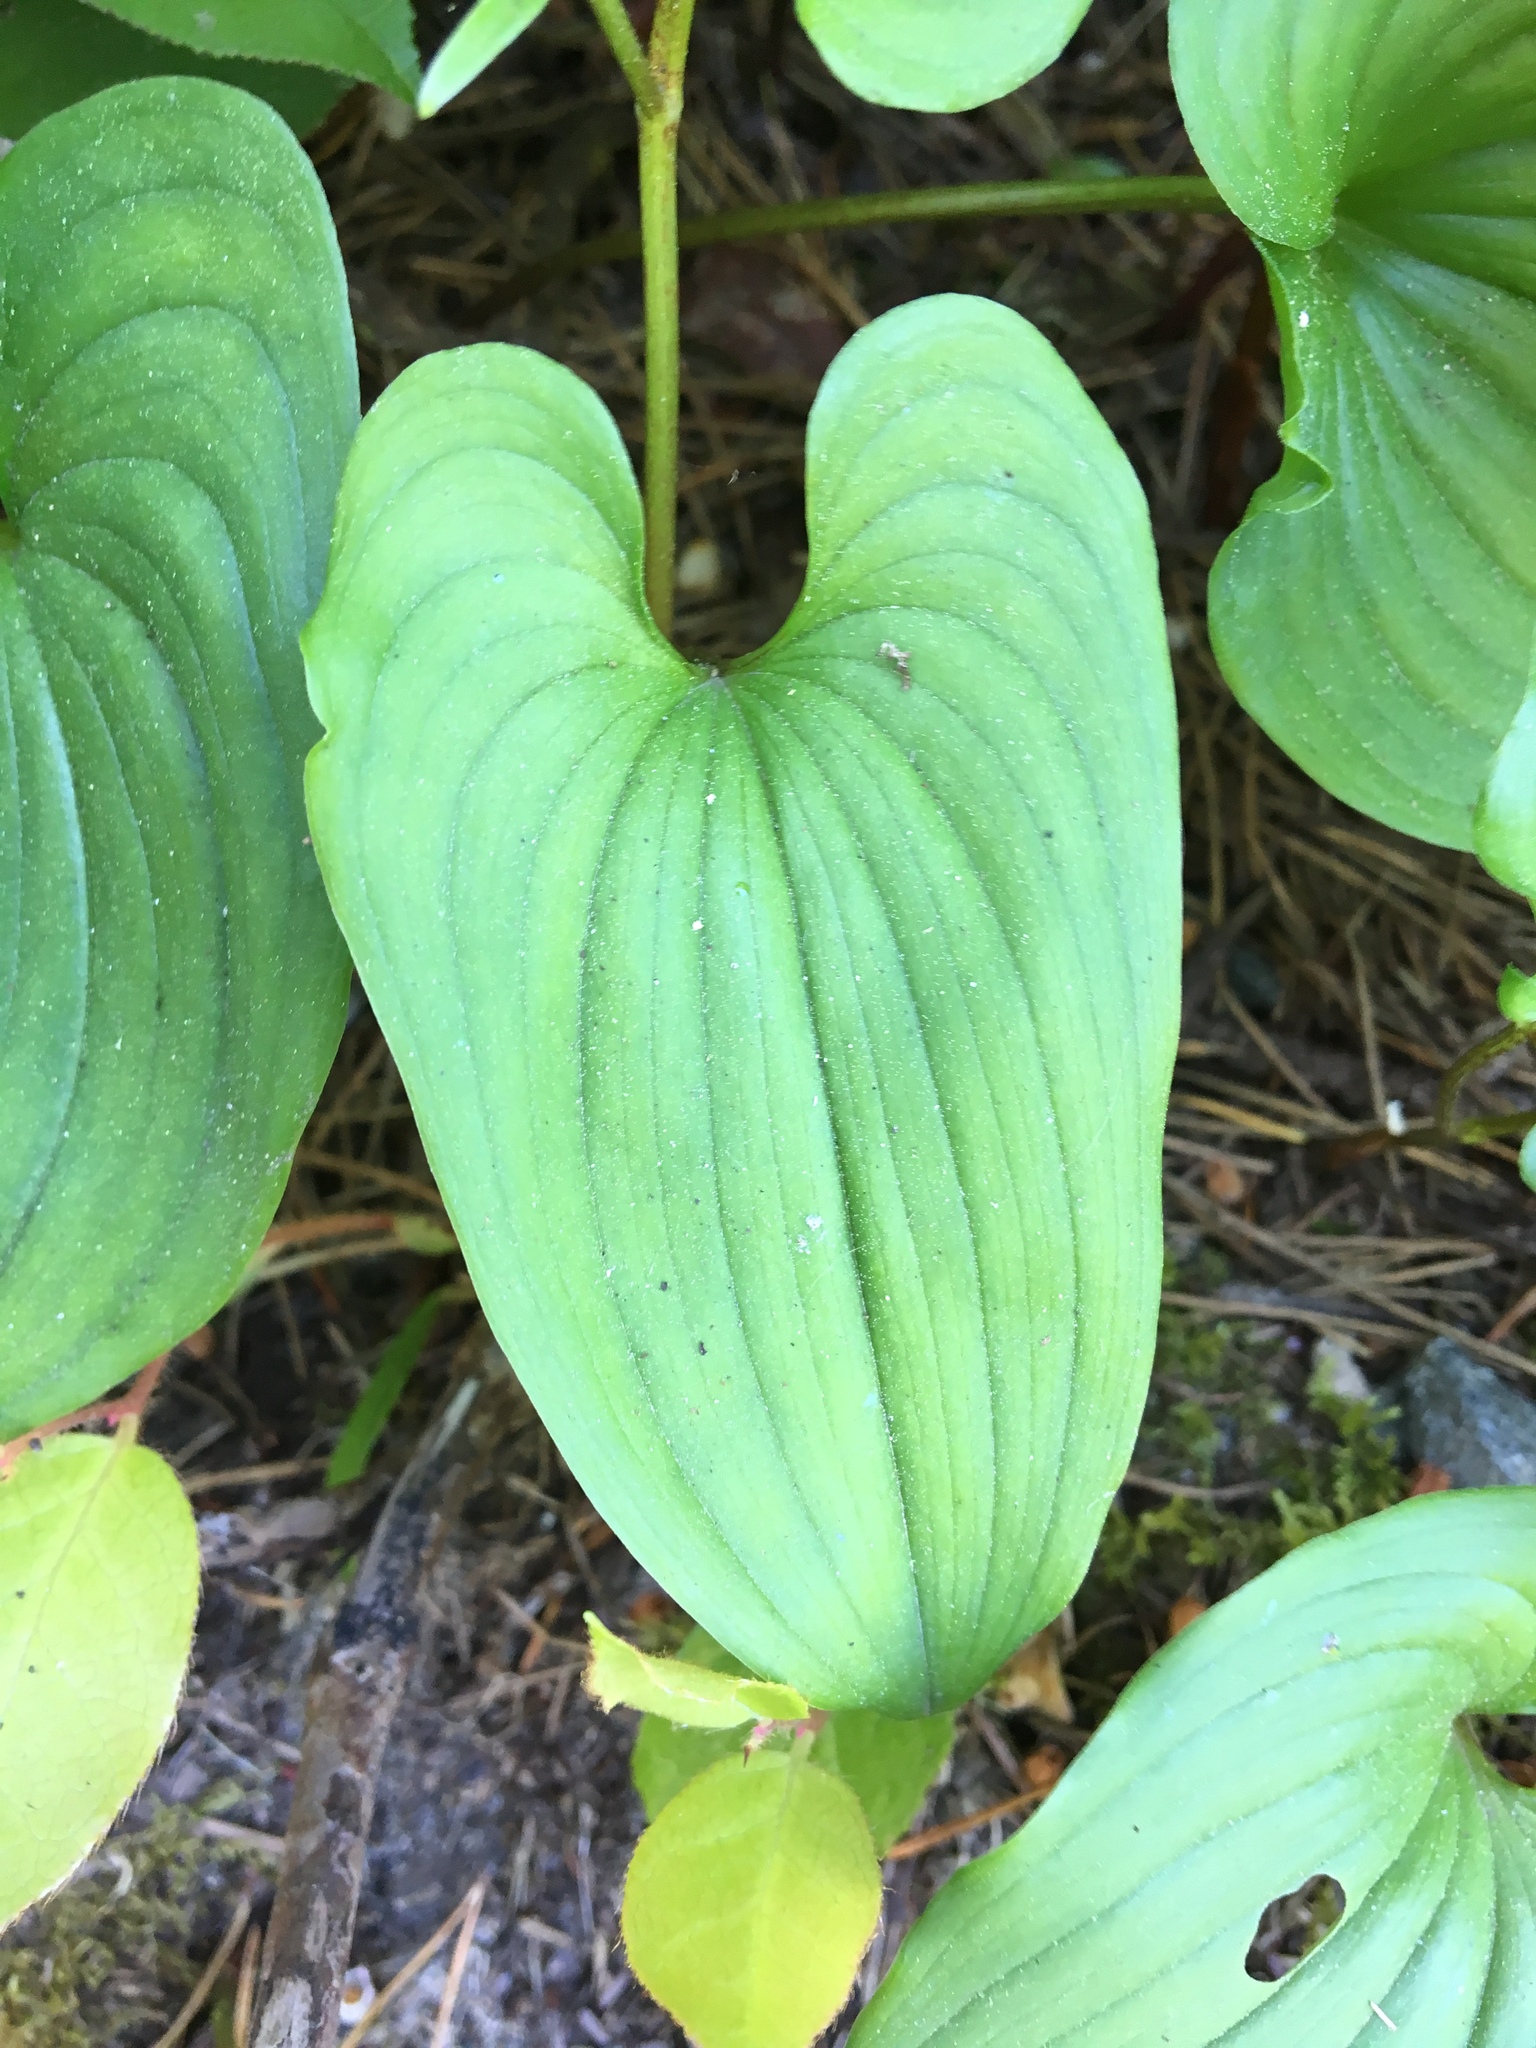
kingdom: Plantae
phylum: Tracheophyta
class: Liliopsida
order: Asparagales
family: Asparagaceae
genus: Maianthemum
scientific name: Maianthemum dilatatum
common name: False lily-of-the-valley
